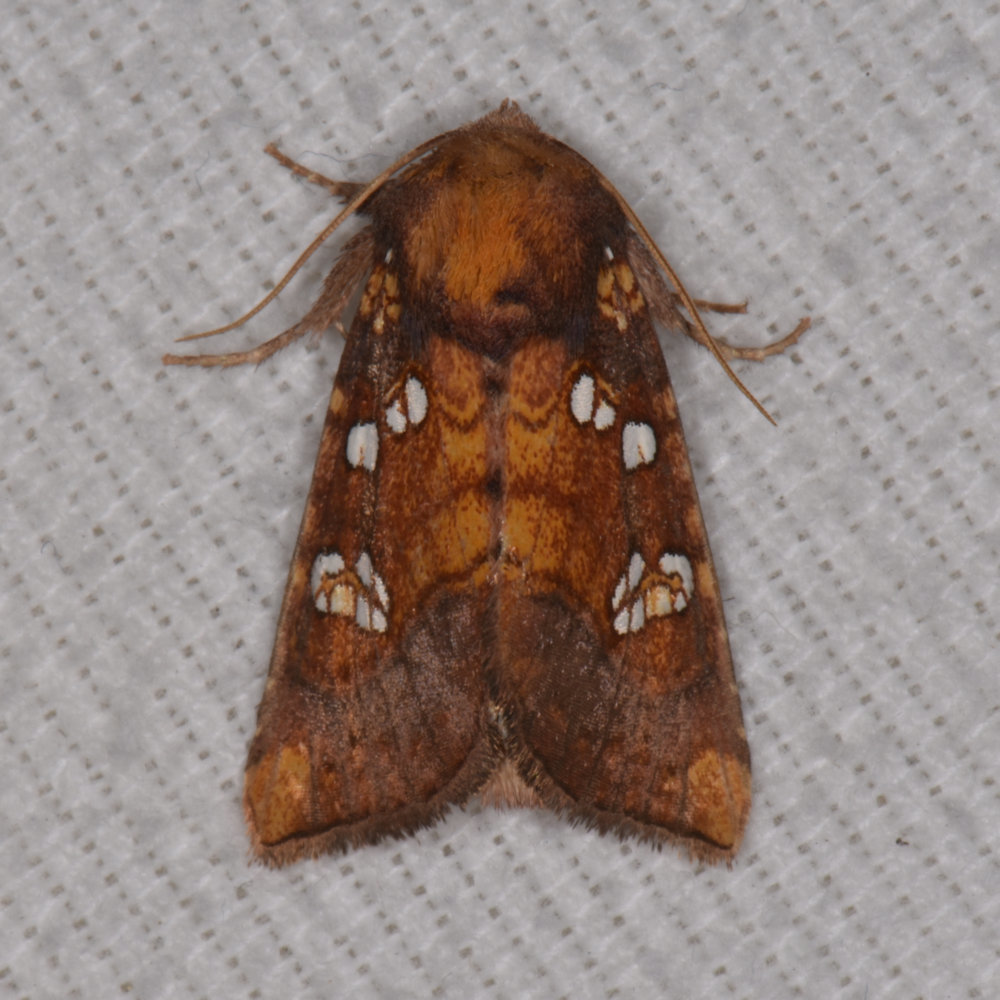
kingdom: Animalia
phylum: Arthropoda
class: Insecta
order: Lepidoptera
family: Noctuidae
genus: Papaipema
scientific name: Papaipema baptisiae
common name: Wild indigo borer moth
